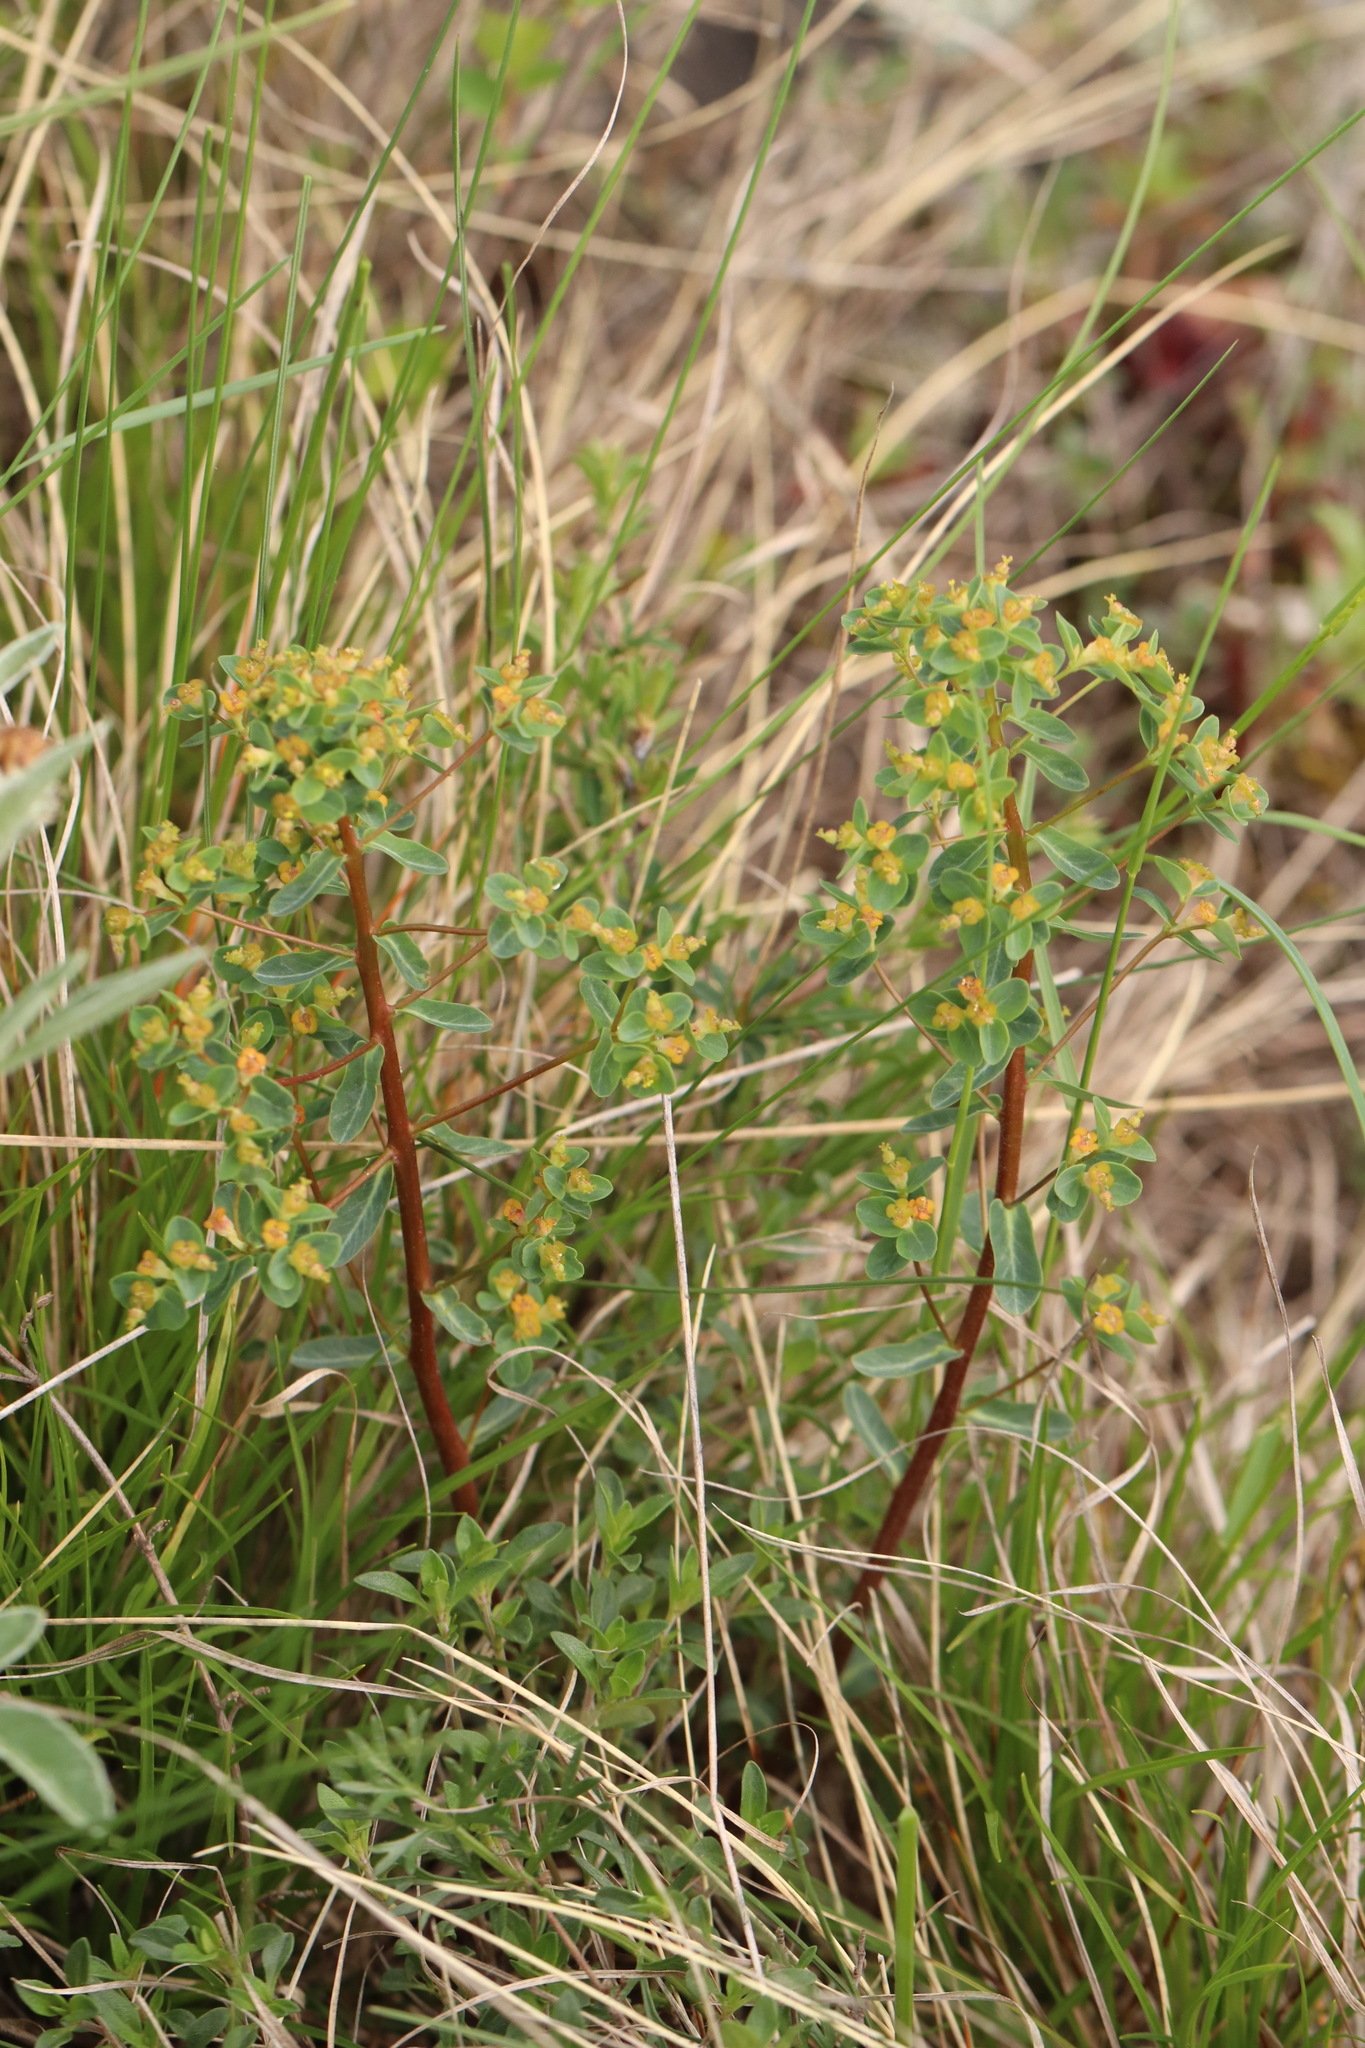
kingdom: Plantae
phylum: Tracheophyta
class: Magnoliopsida
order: Malpighiales
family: Euphorbiaceae
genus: Euphorbia
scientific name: Euphorbia alpina
